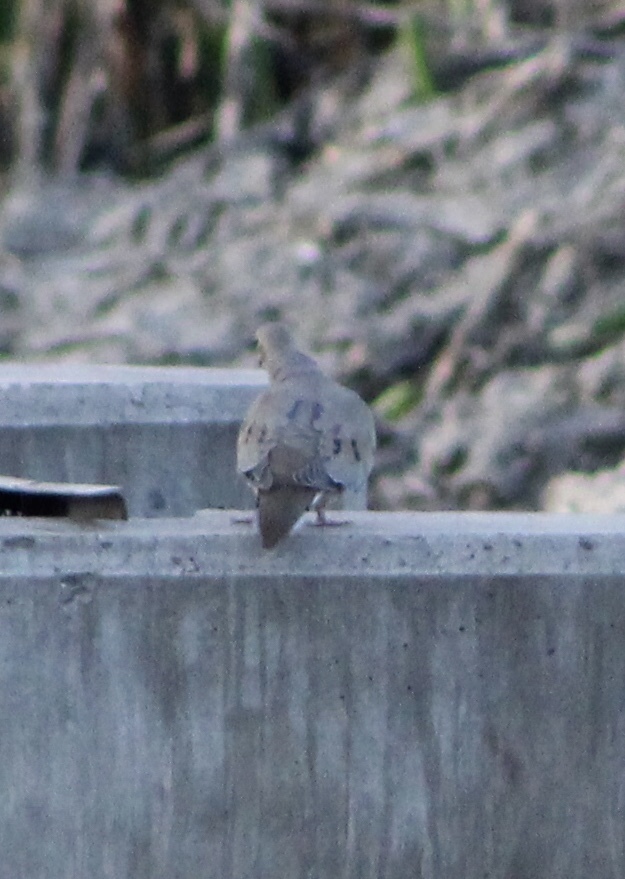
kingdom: Animalia
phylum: Chordata
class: Aves
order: Columbiformes
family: Columbidae
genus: Zenaida
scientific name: Zenaida macroura
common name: Mourning dove
